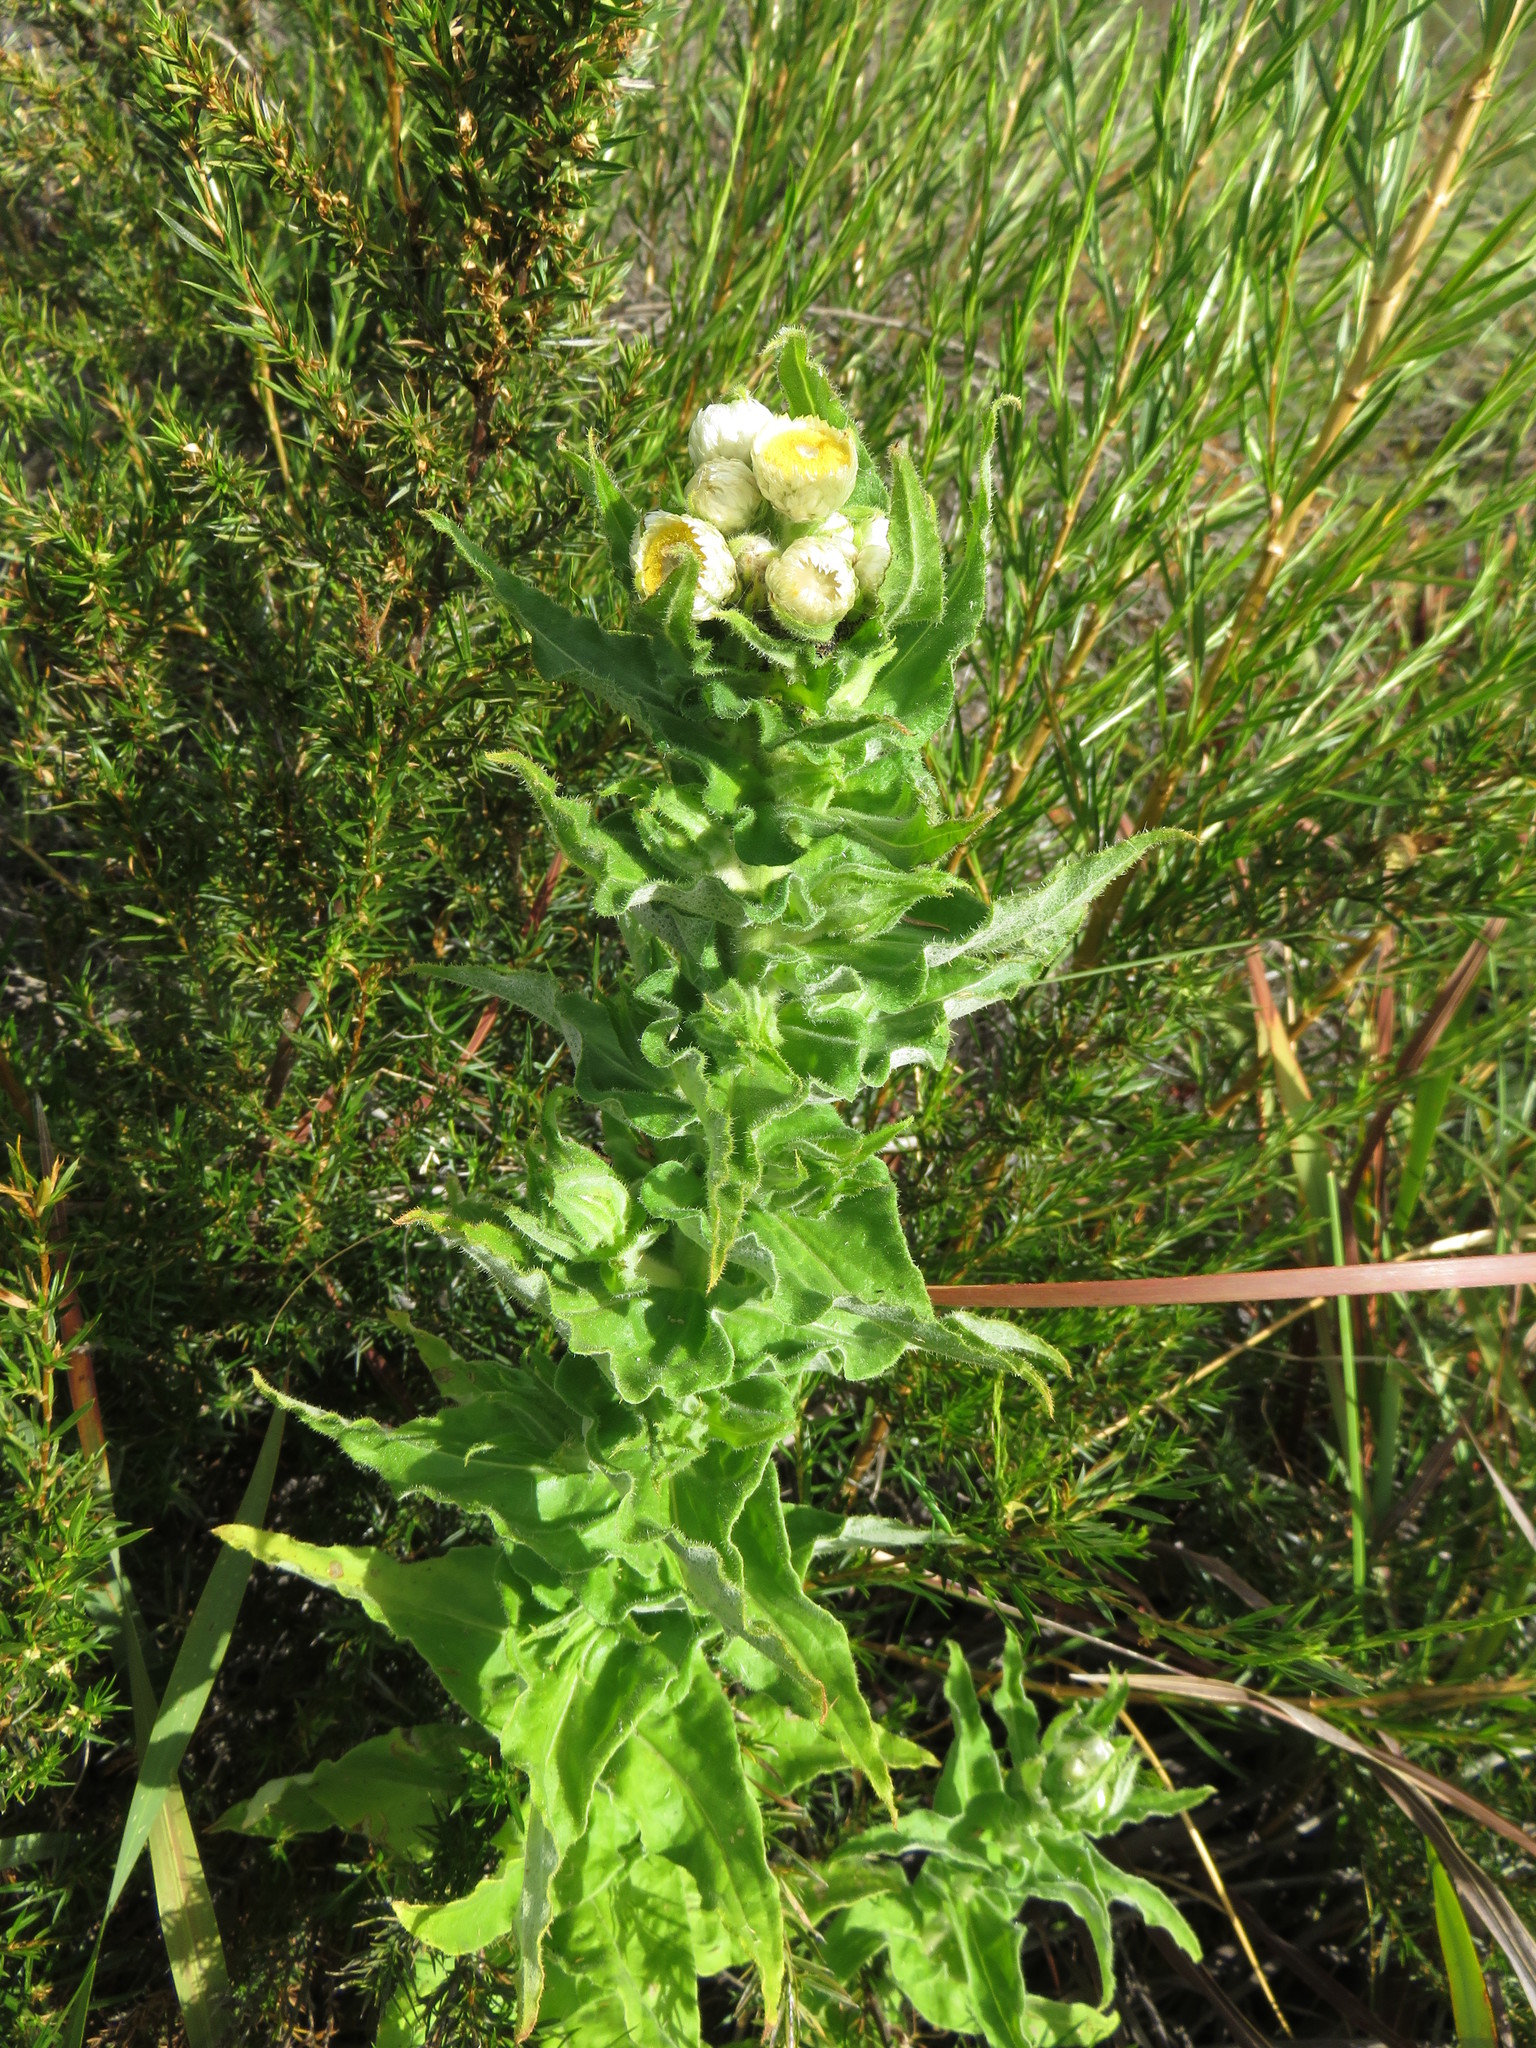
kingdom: Plantae
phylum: Tracheophyta
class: Magnoliopsida
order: Asterales
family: Asteraceae
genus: Helichrysum
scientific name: Helichrysum foetidum
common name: Stinking everlasting
